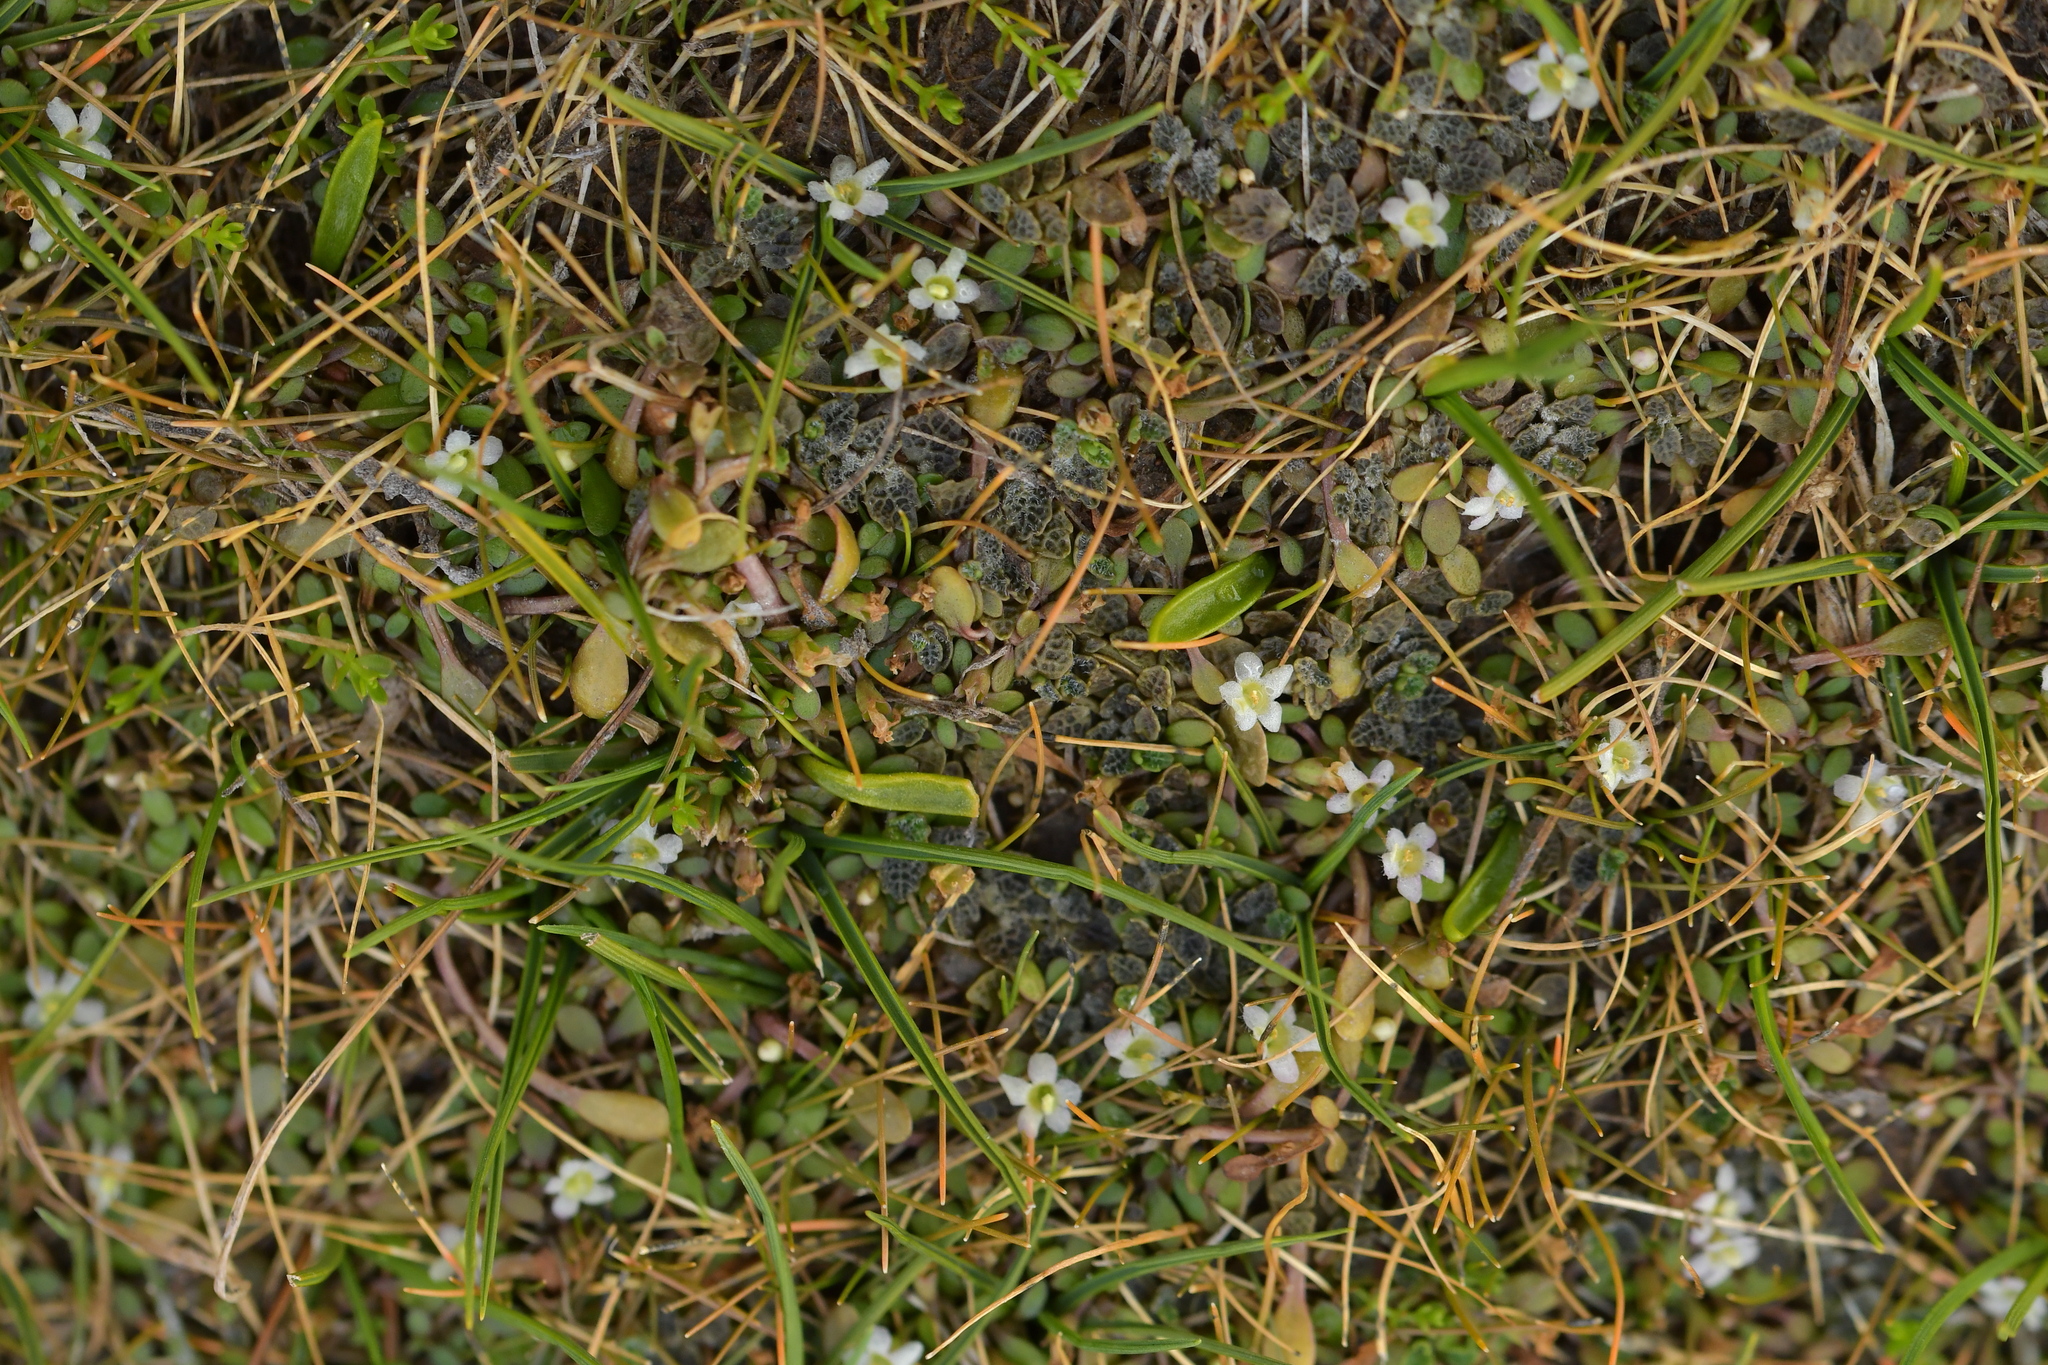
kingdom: Plantae
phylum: Tracheophyta
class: Magnoliopsida
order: Lamiales
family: Phrymaceae
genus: Glossostigma
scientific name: Glossostigma elatinoides
